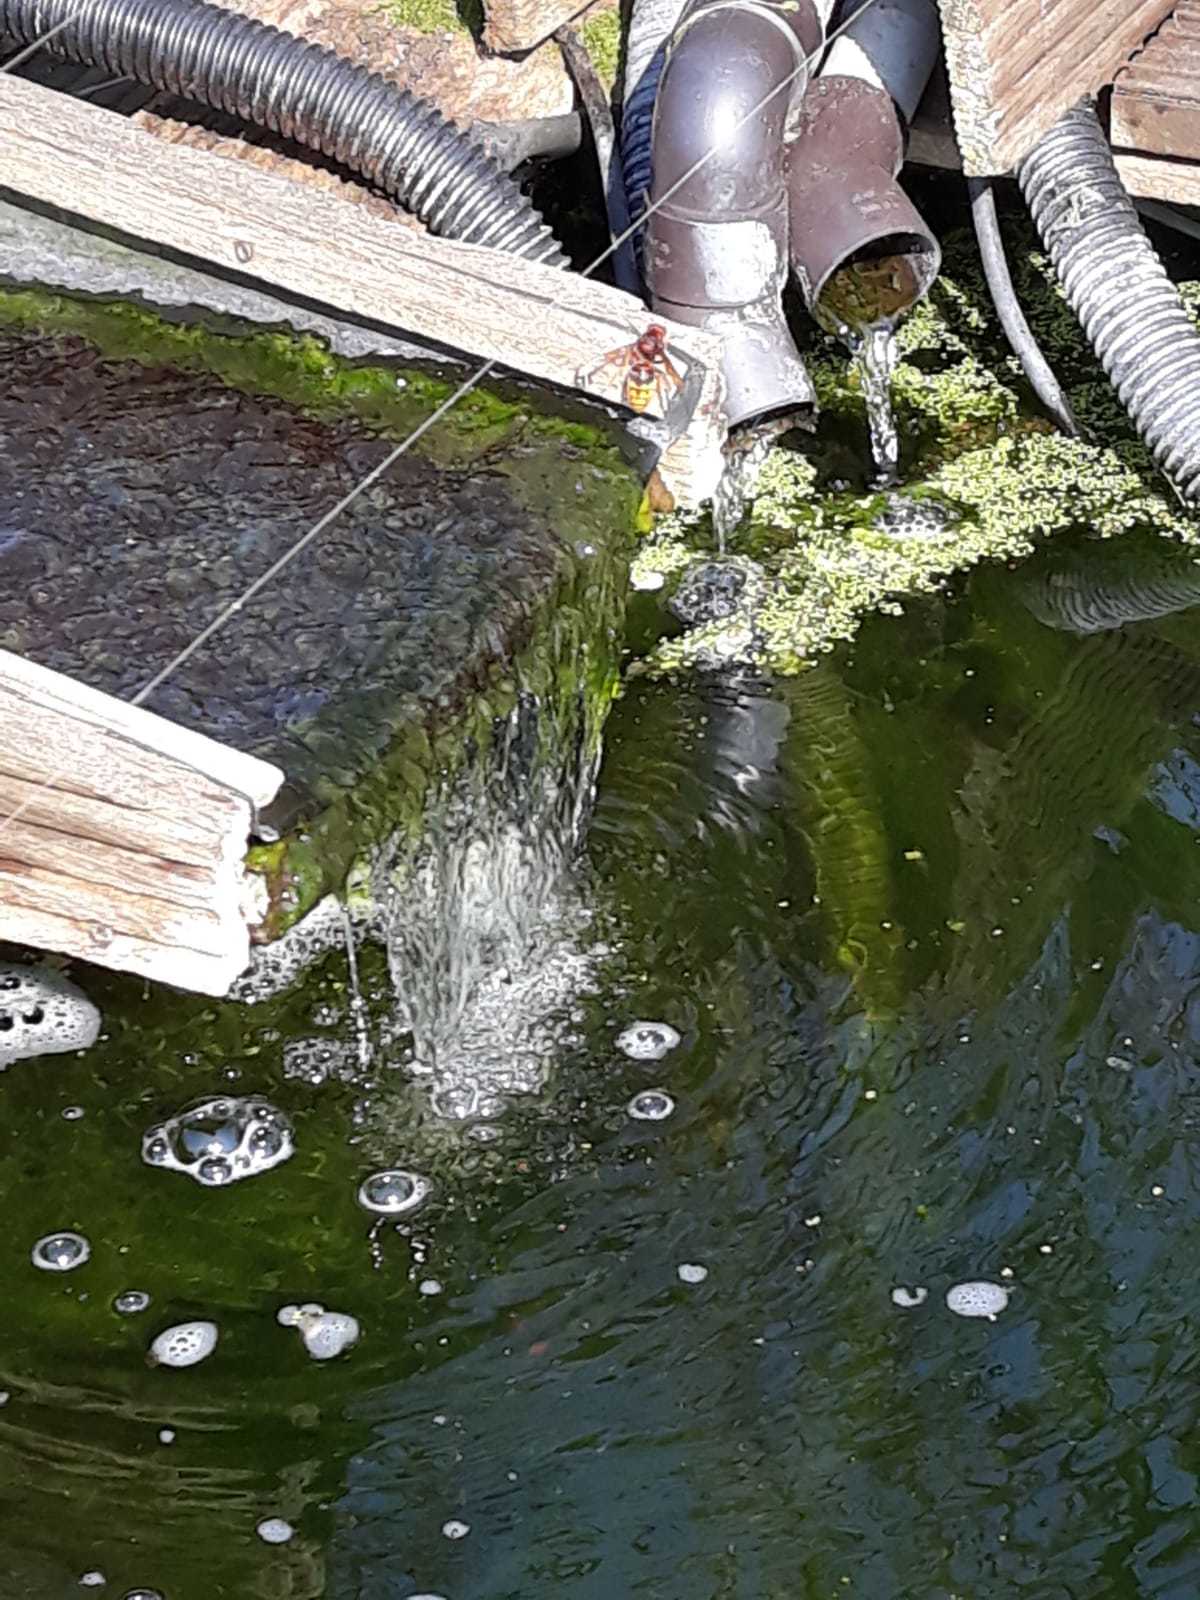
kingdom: Animalia
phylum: Arthropoda
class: Insecta
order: Hymenoptera
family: Vespidae
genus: Vespa
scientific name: Vespa crabro
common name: Hornet
